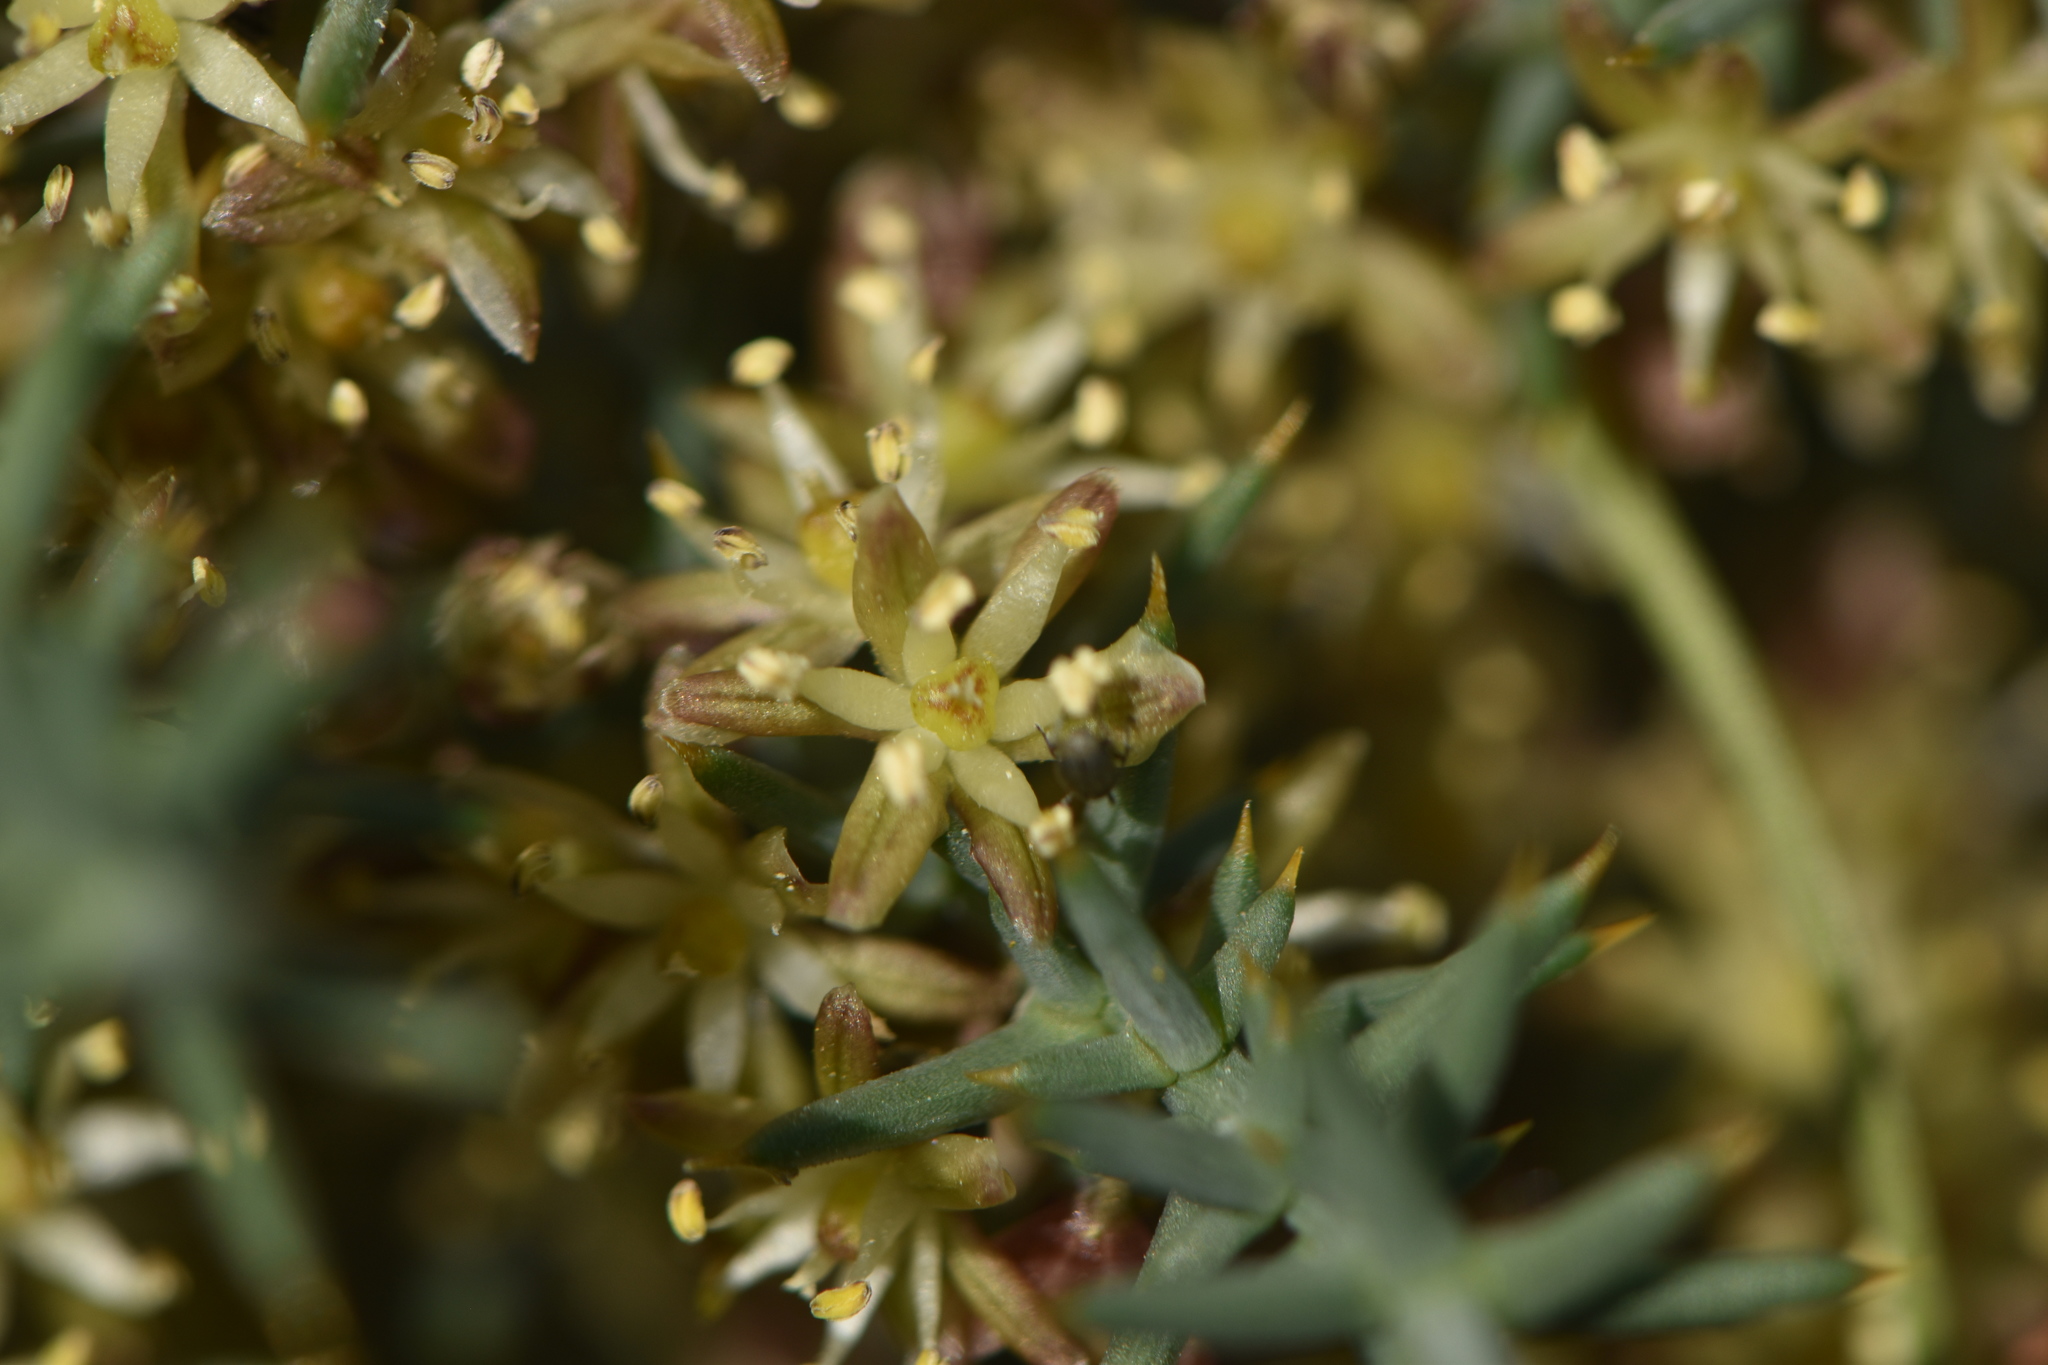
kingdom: Plantae
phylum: Tracheophyta
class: Liliopsida
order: Asparagales
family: Asparagaceae
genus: Asparagus
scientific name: Asparagus horridus
